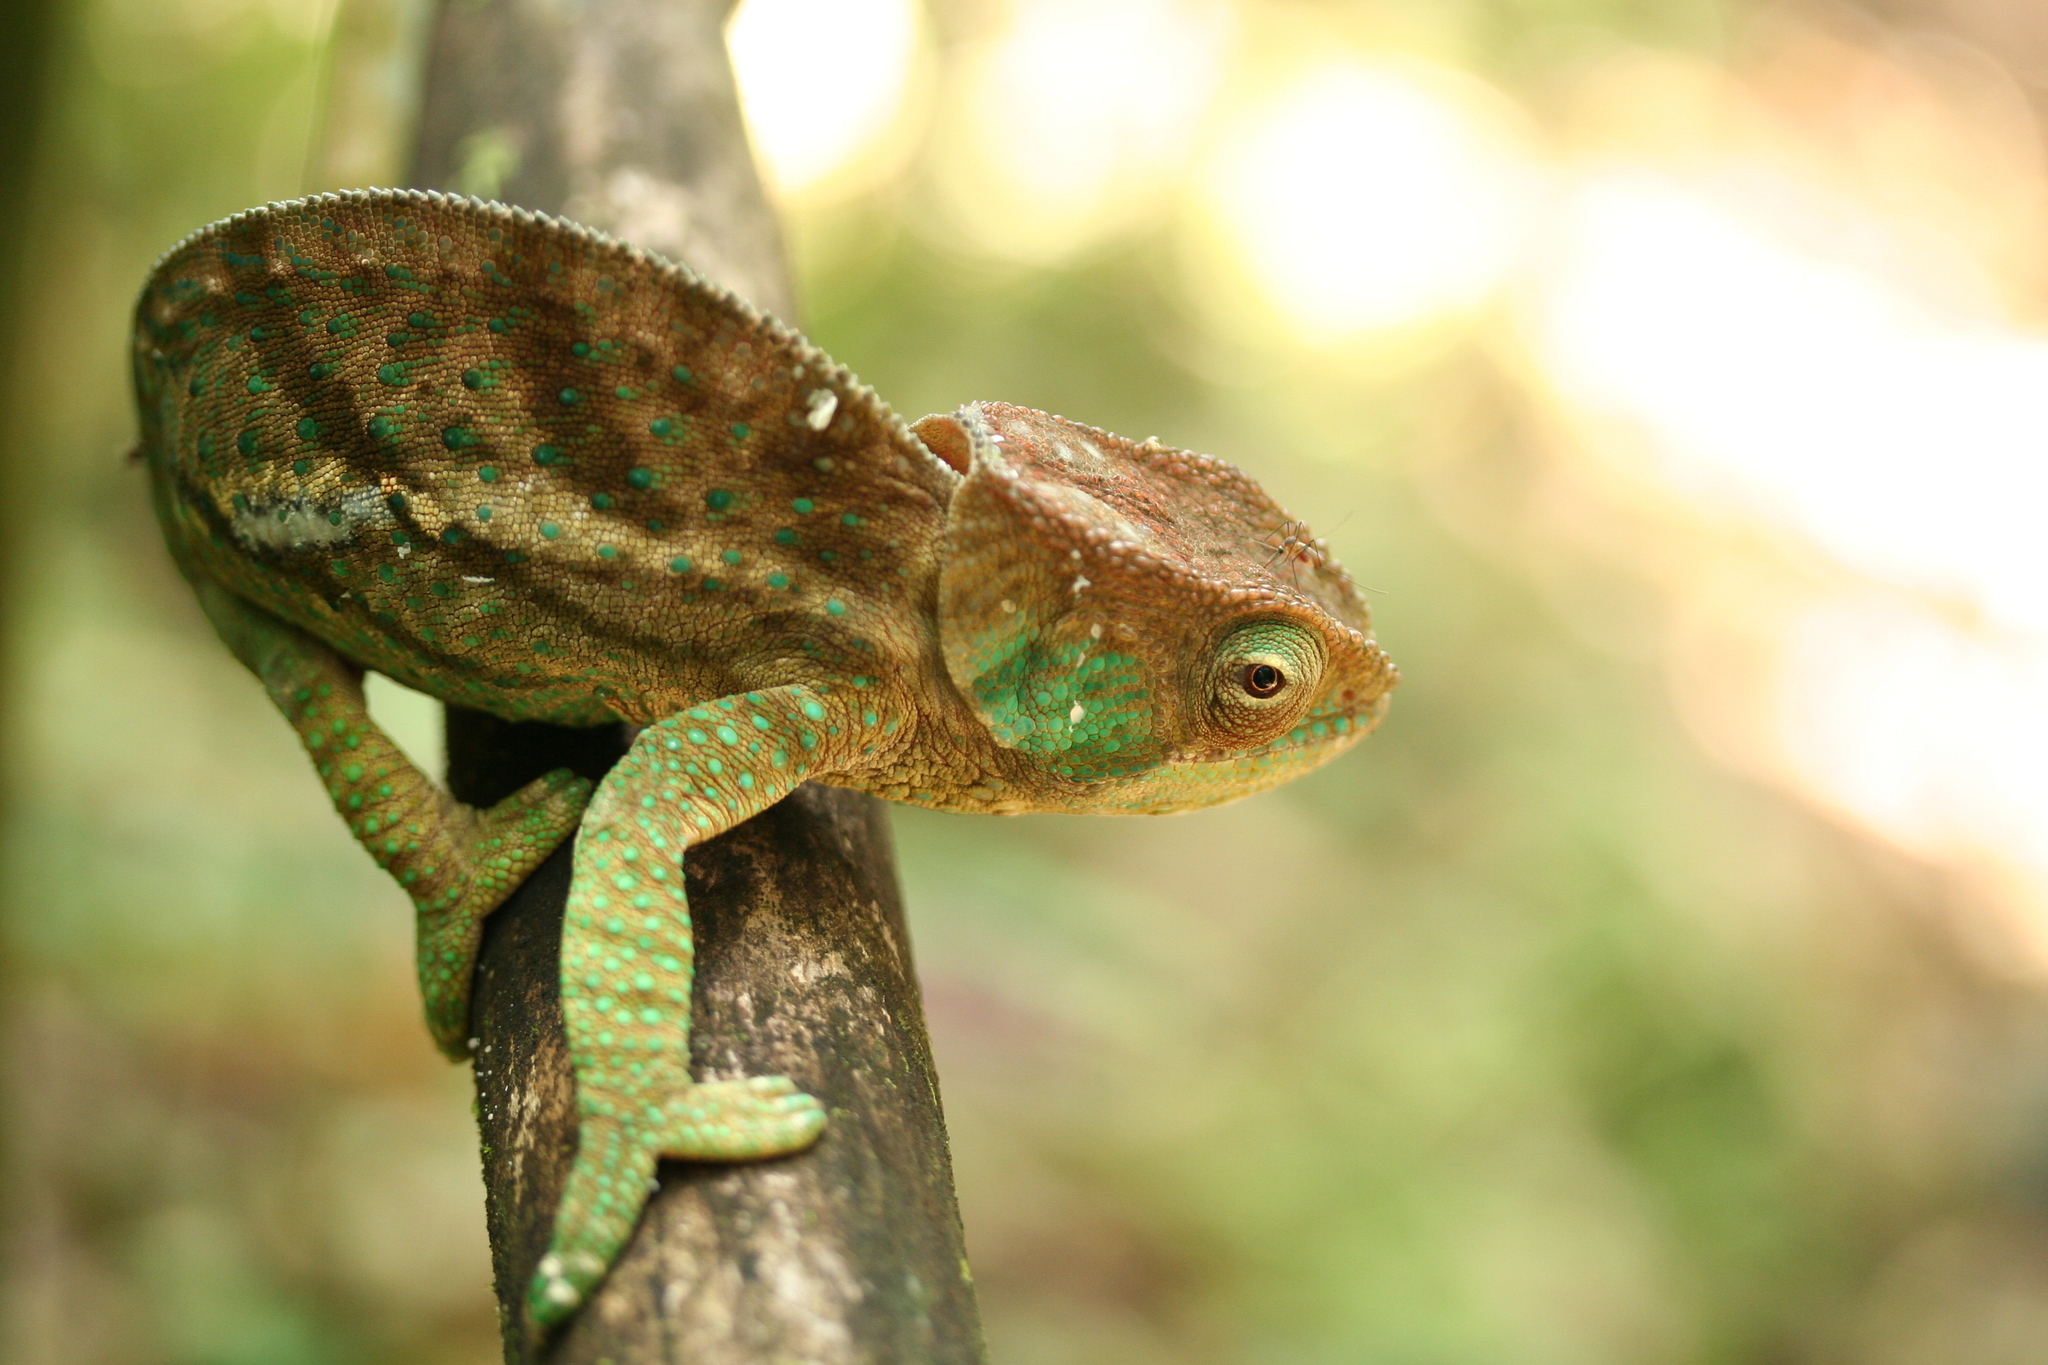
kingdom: Animalia
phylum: Chordata
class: Squamata
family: Chamaeleonidae
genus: Calumma
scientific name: Calumma oshaughnessyi
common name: O'shaughnessy's chameleon
